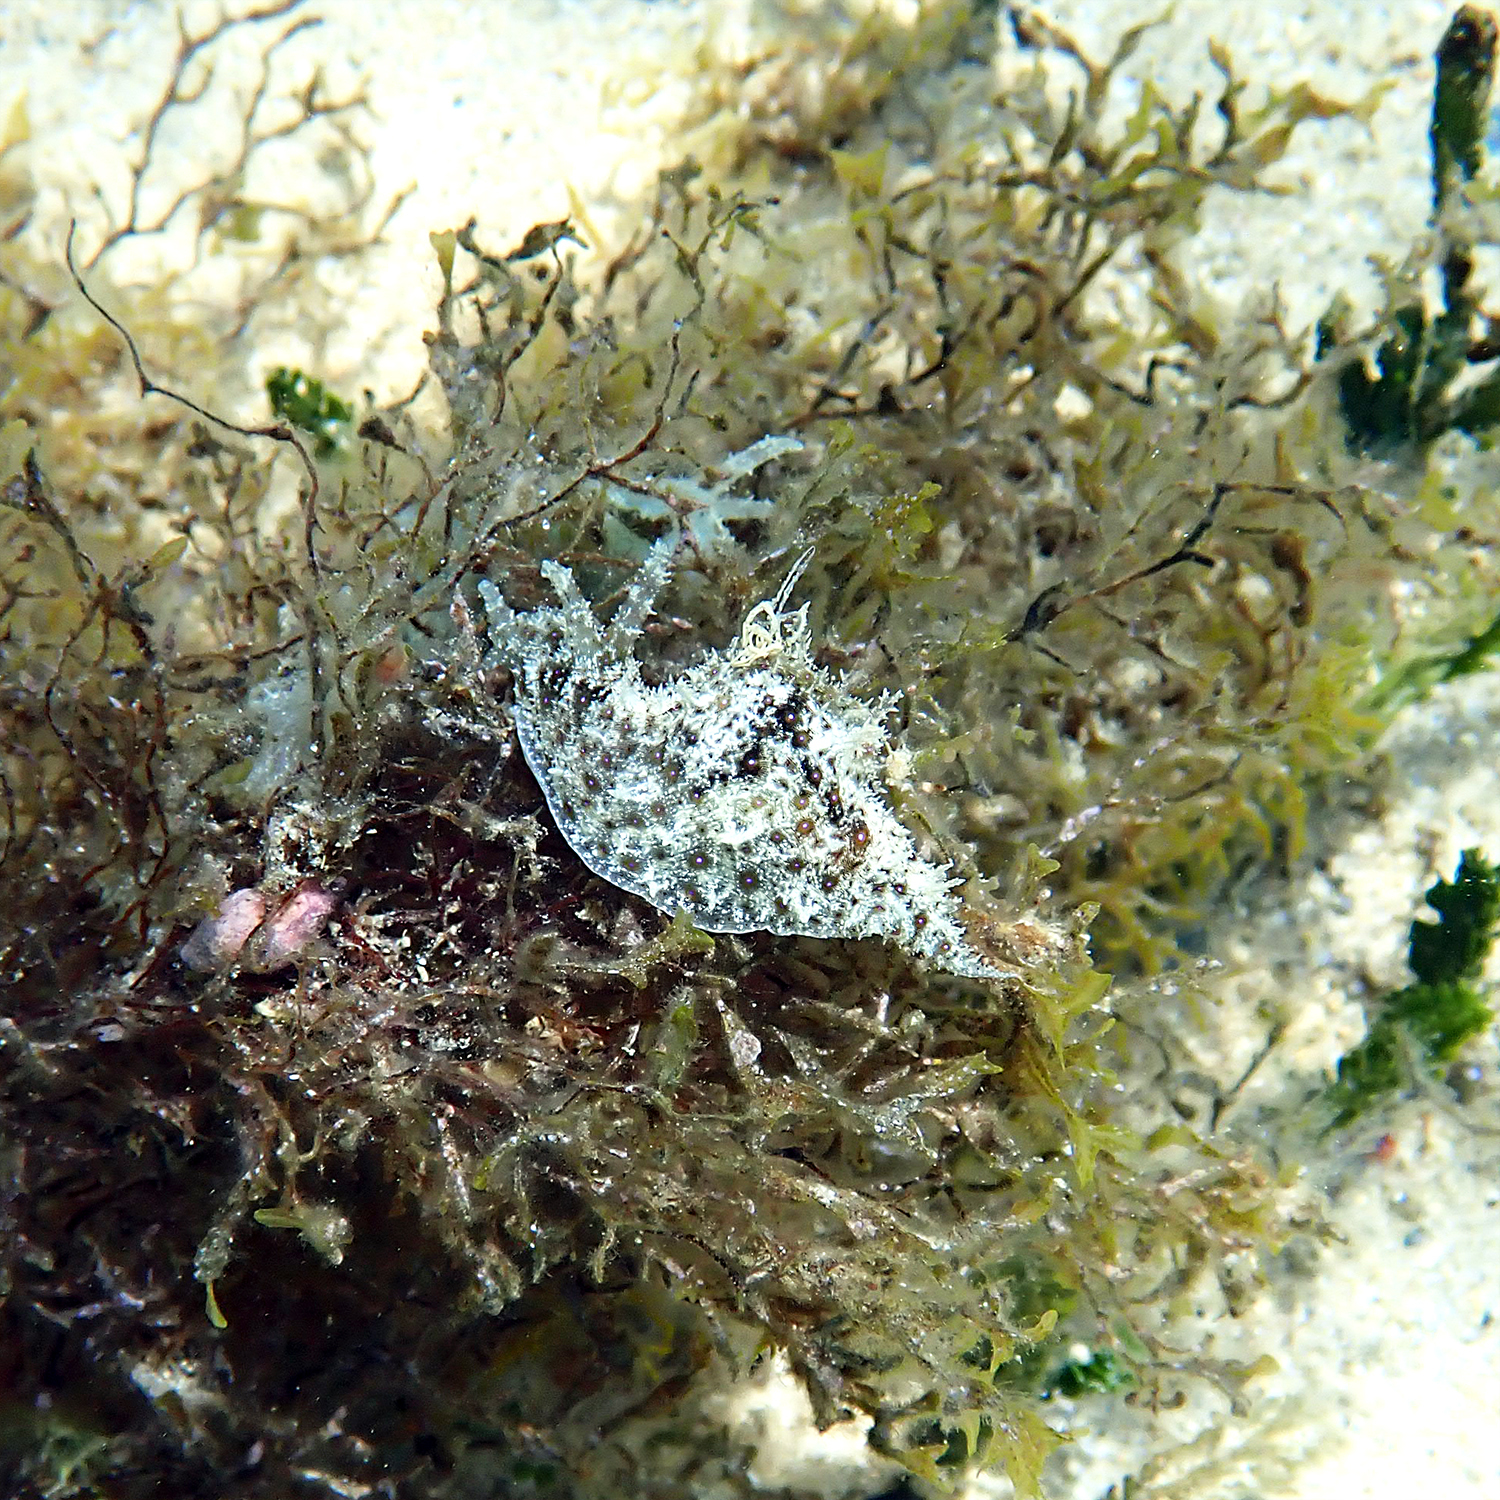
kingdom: Animalia
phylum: Mollusca
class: Gastropoda
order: Aplysiida
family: Aplysiidae
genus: Stylocheilus
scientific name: Stylocheilus striatus
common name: Striated seahare
